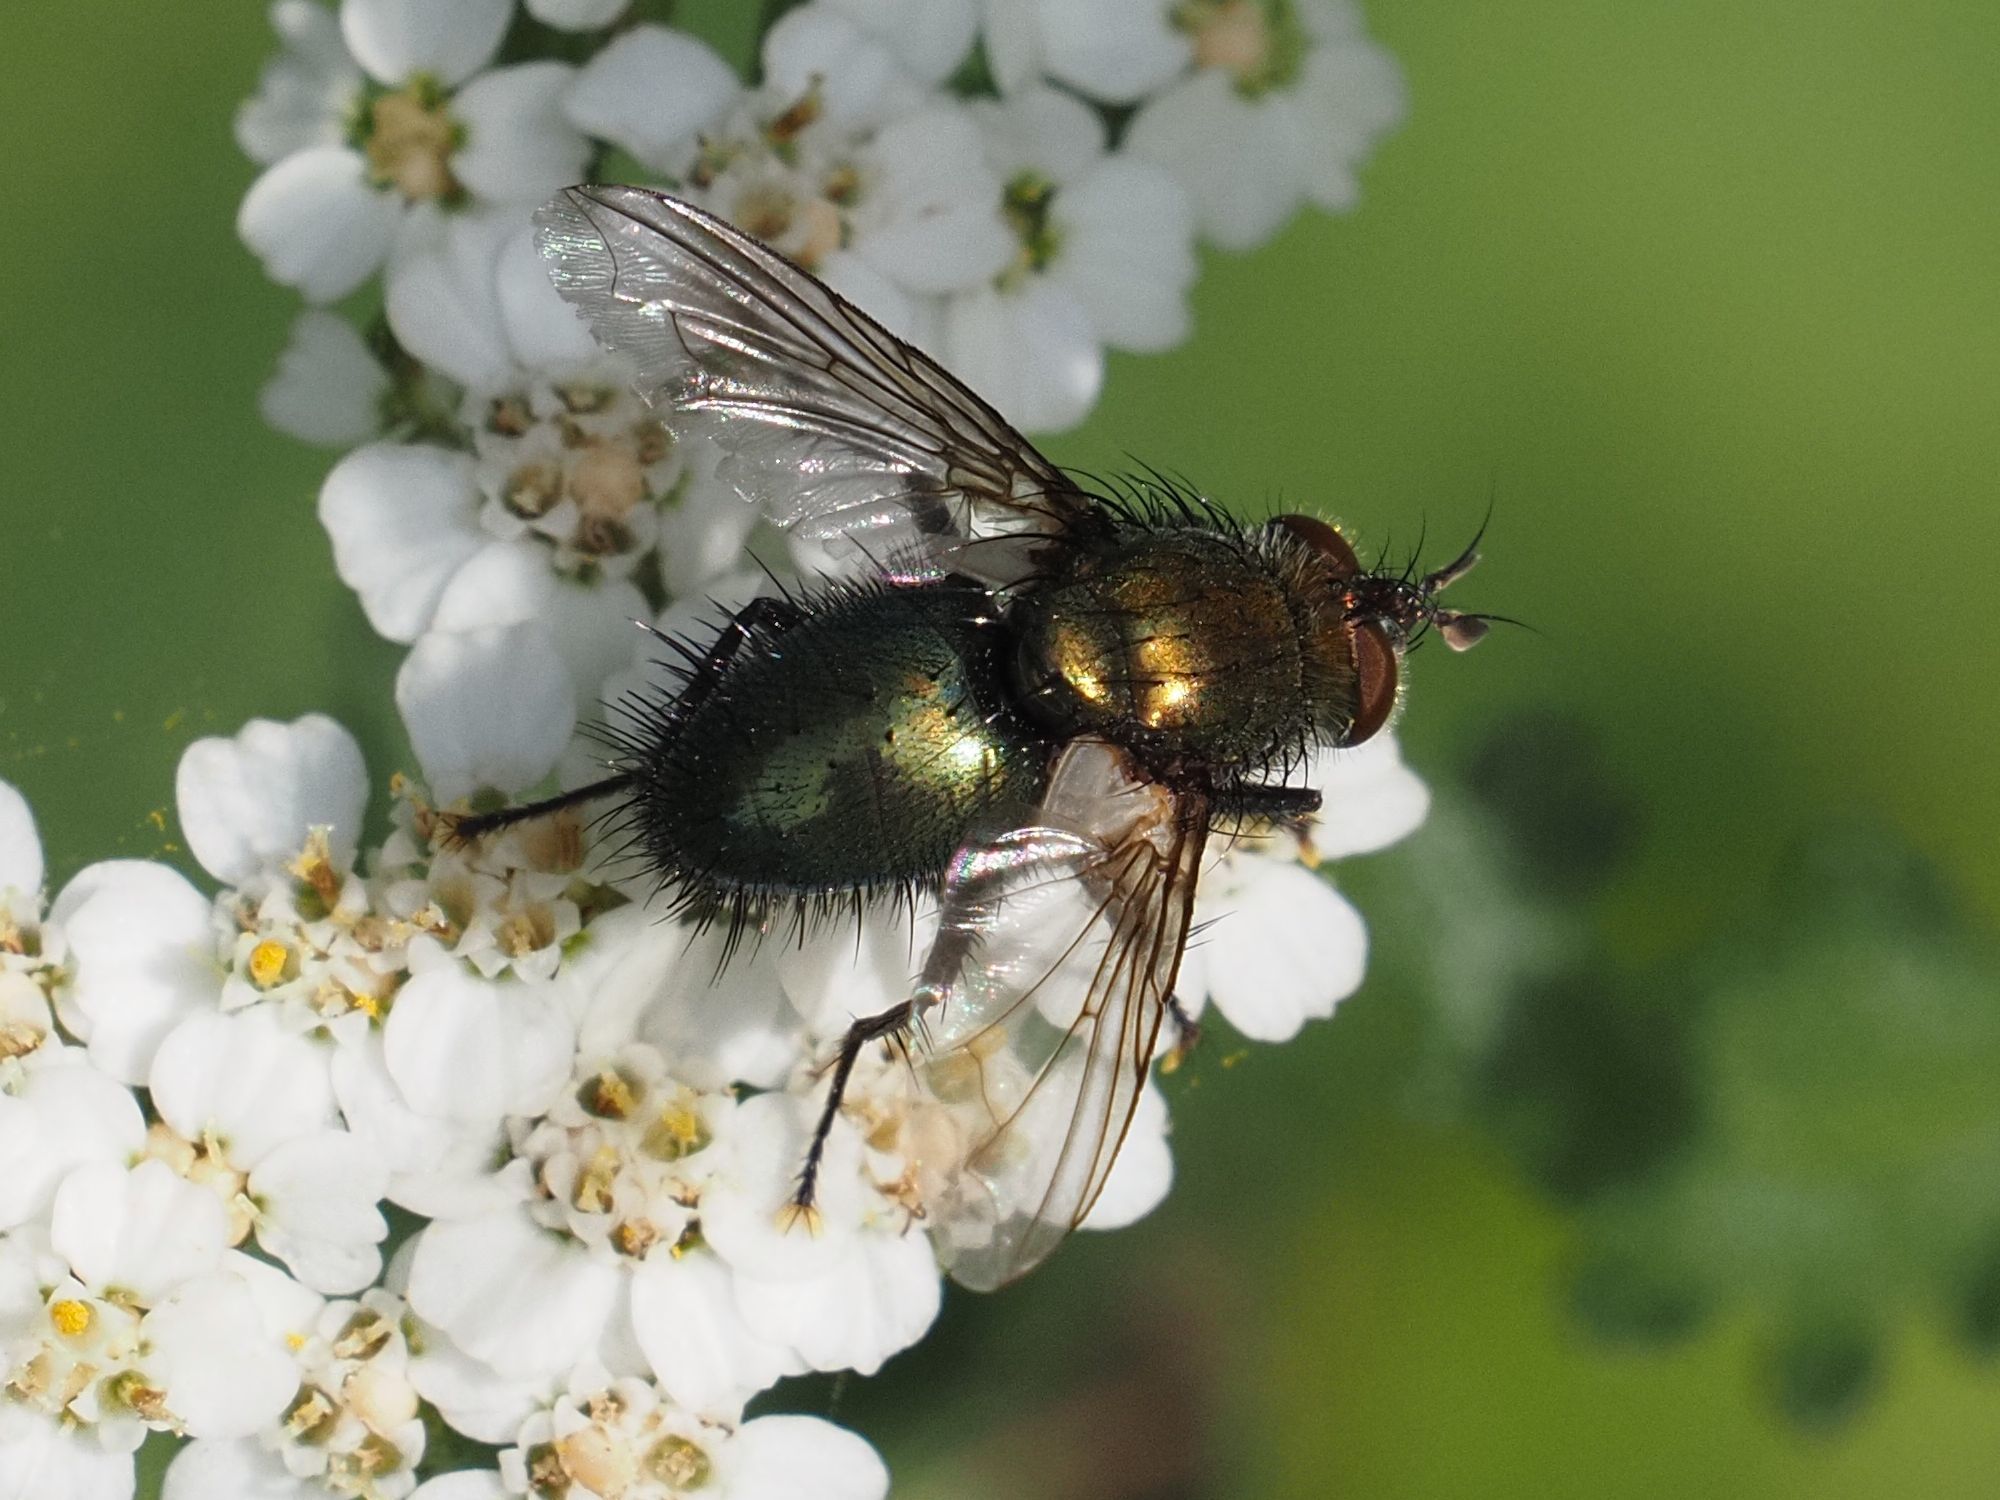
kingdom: Animalia
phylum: Arthropoda
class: Insecta
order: Diptera
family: Tachinidae
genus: Chrysosomopsis
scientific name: Chrysosomopsis
